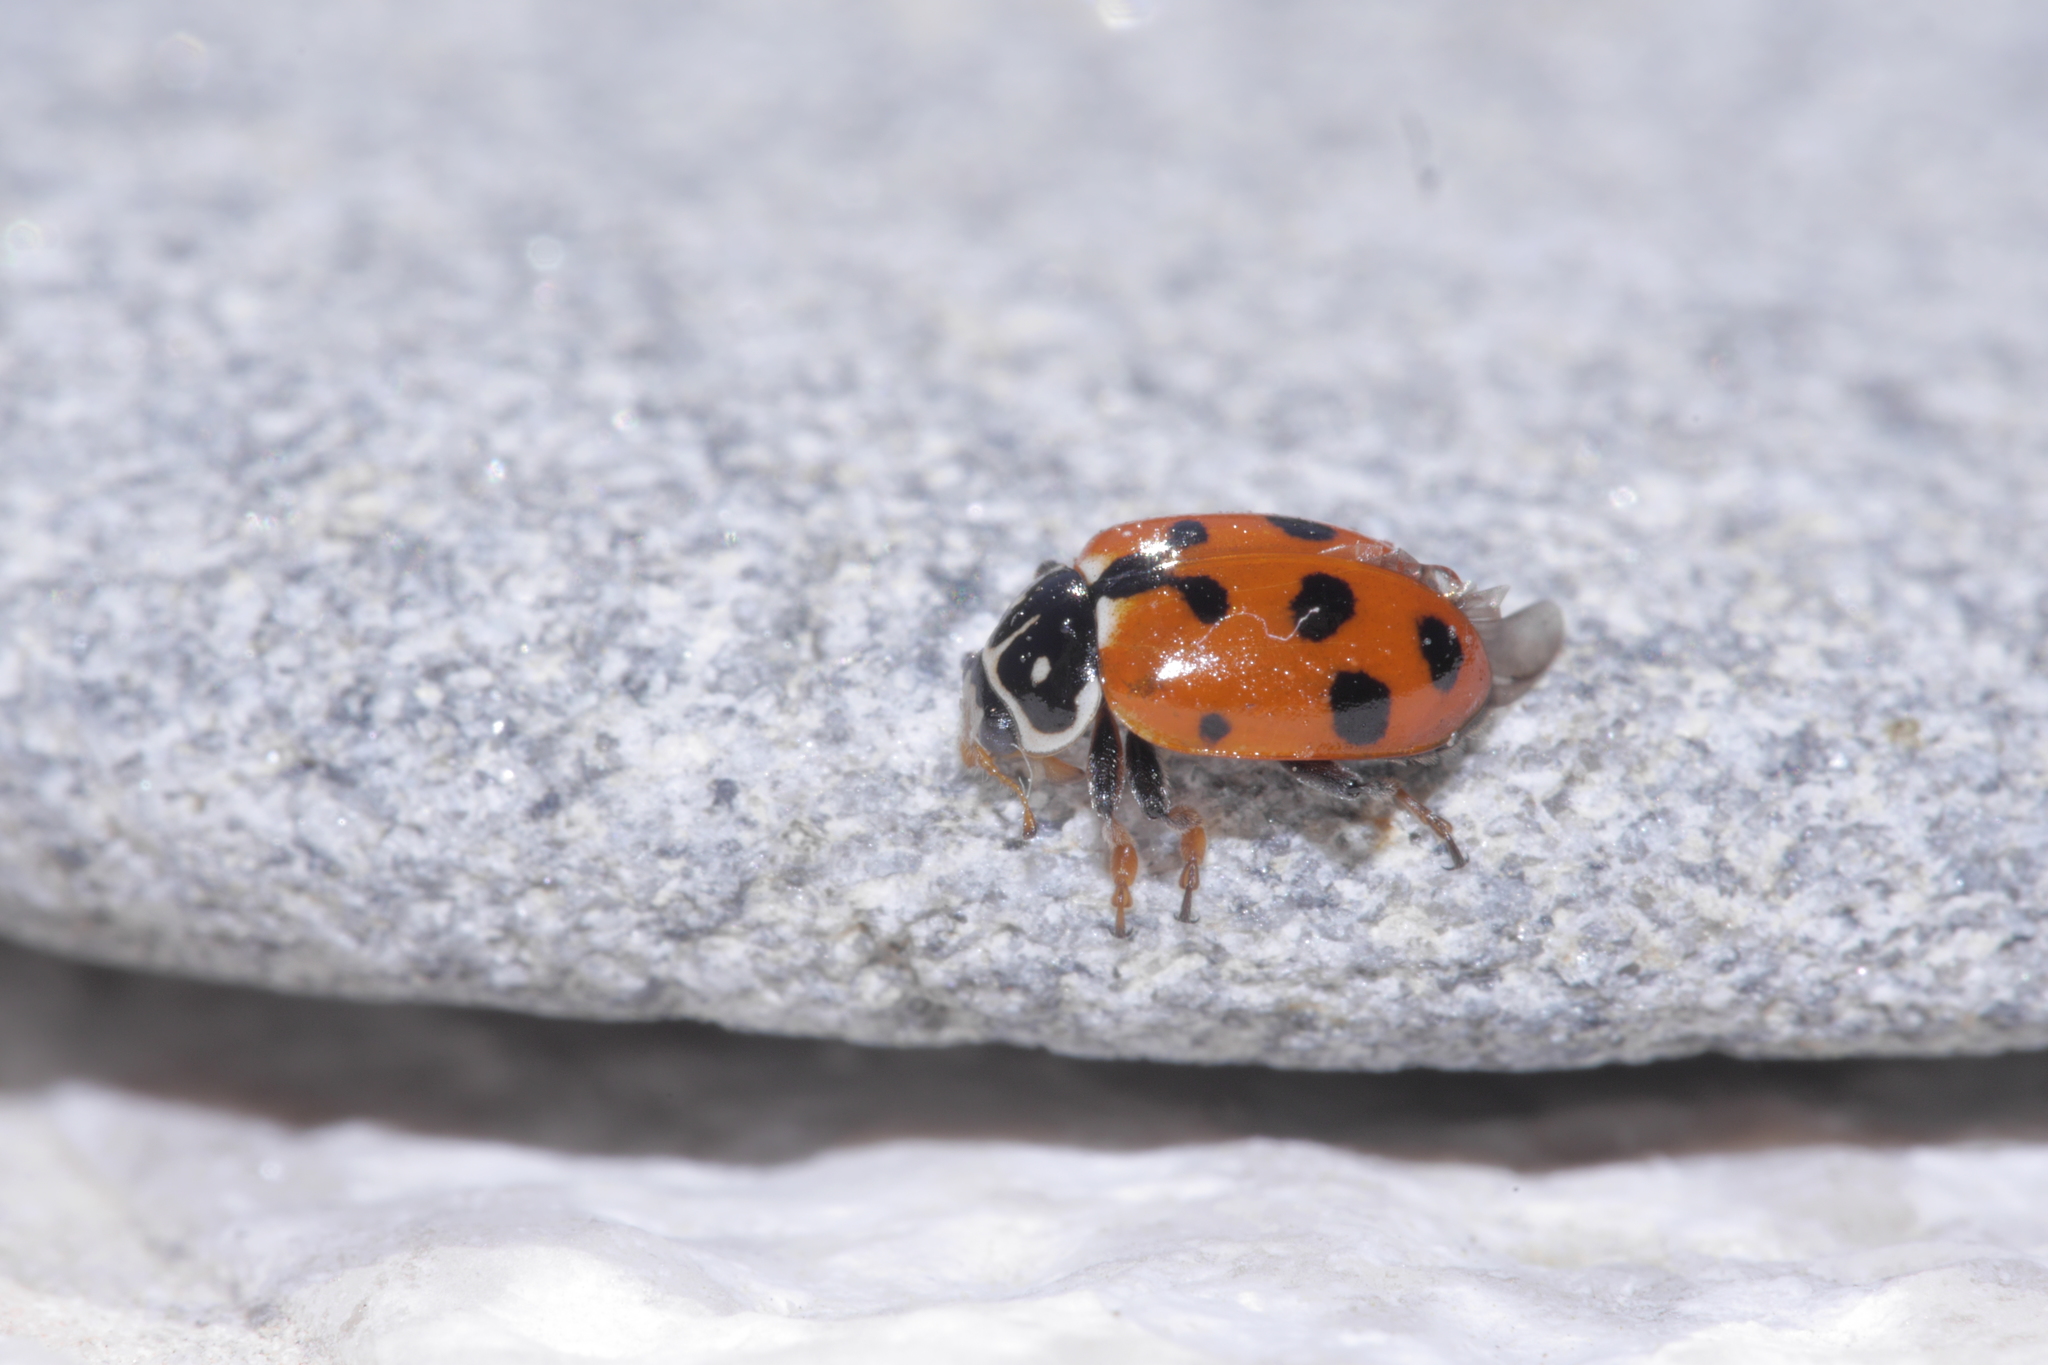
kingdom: Animalia
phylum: Arthropoda
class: Insecta
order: Coleoptera
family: Coccinellidae
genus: Hippodamia
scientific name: Hippodamia variegata
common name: Ladybird beetle
